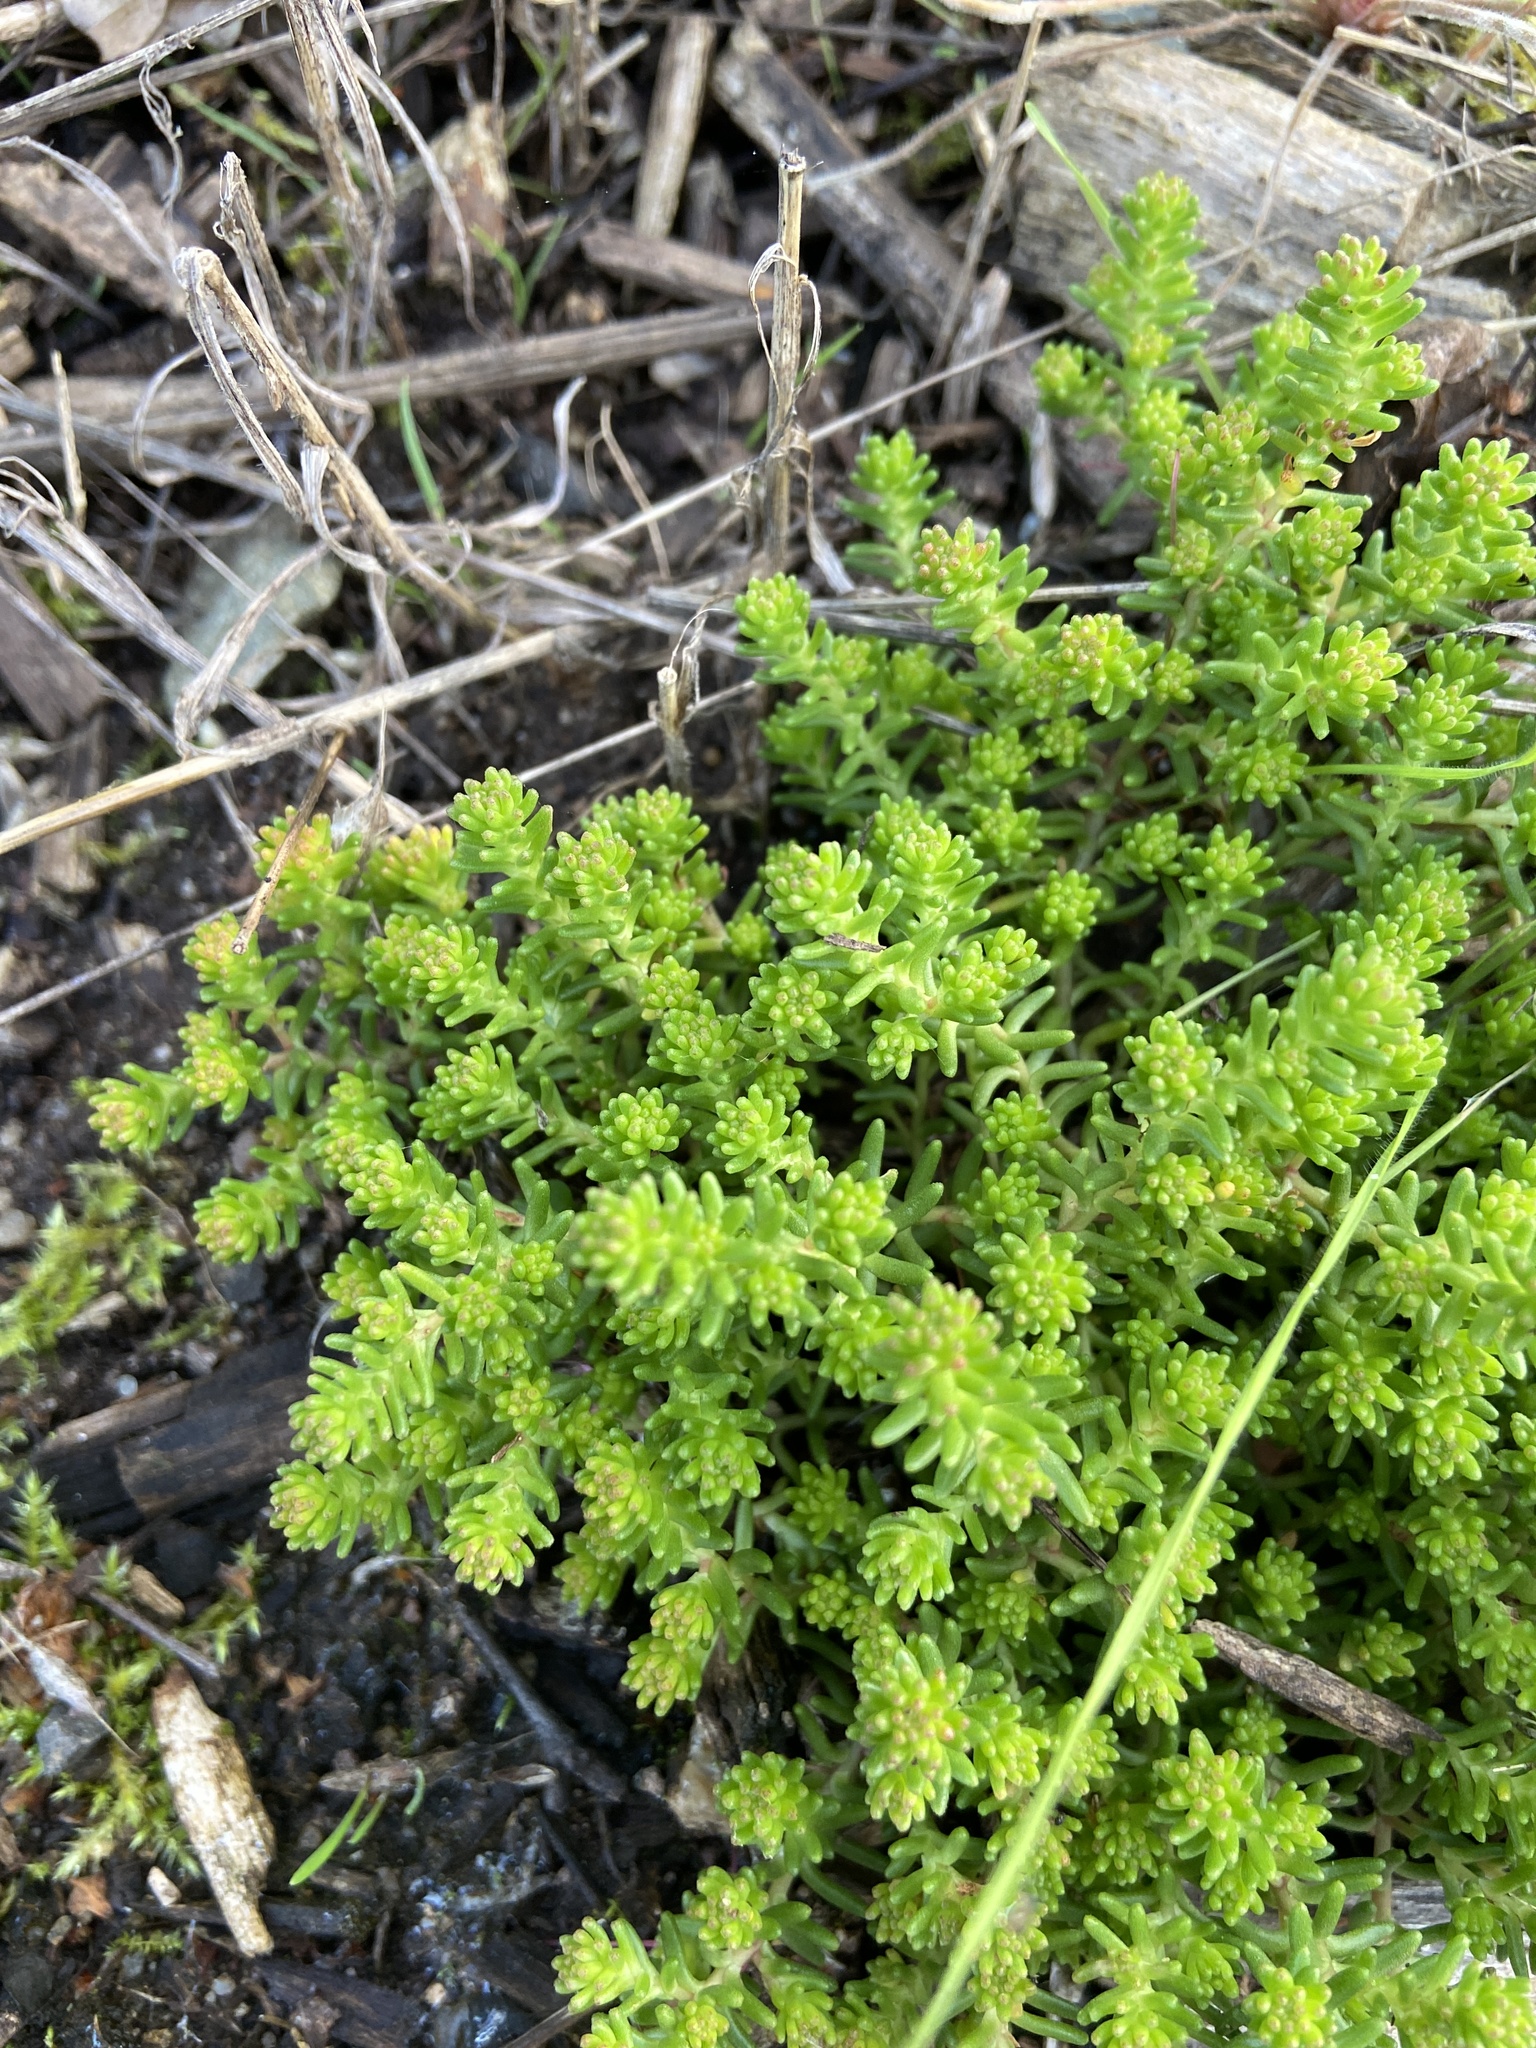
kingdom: Plantae
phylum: Tracheophyta
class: Magnoliopsida
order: Saxifragales
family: Crassulaceae
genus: Sedum
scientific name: Sedum sexangulare
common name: Tasteless stonecrop
